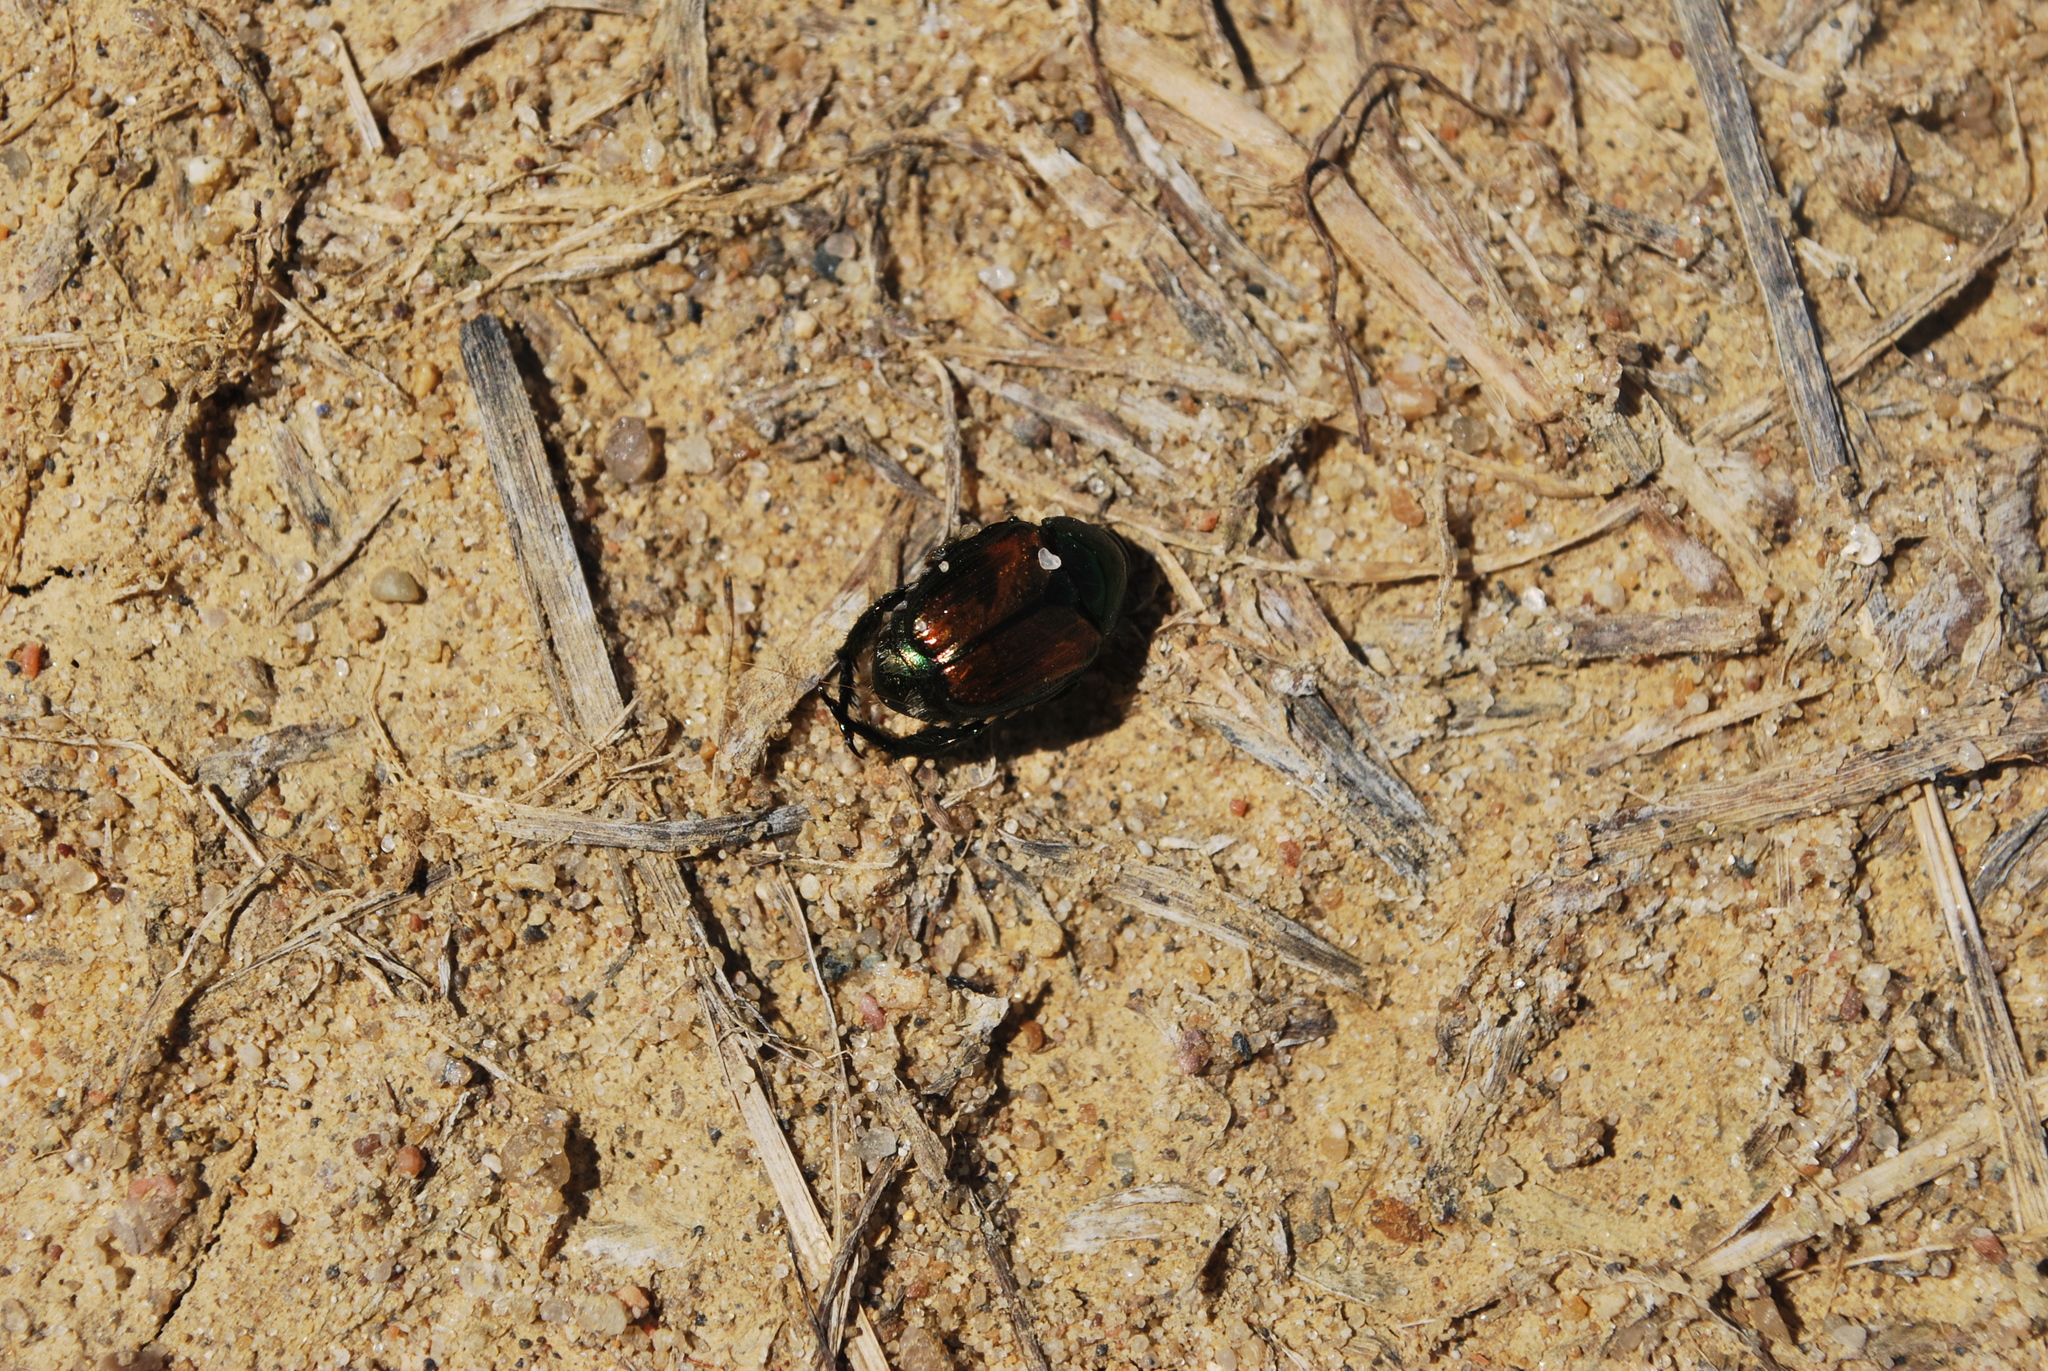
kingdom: Animalia
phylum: Arthropoda
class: Insecta
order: Coleoptera
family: Scarabaeidae
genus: Popillia
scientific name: Popillia japonica
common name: Japanese beetle
